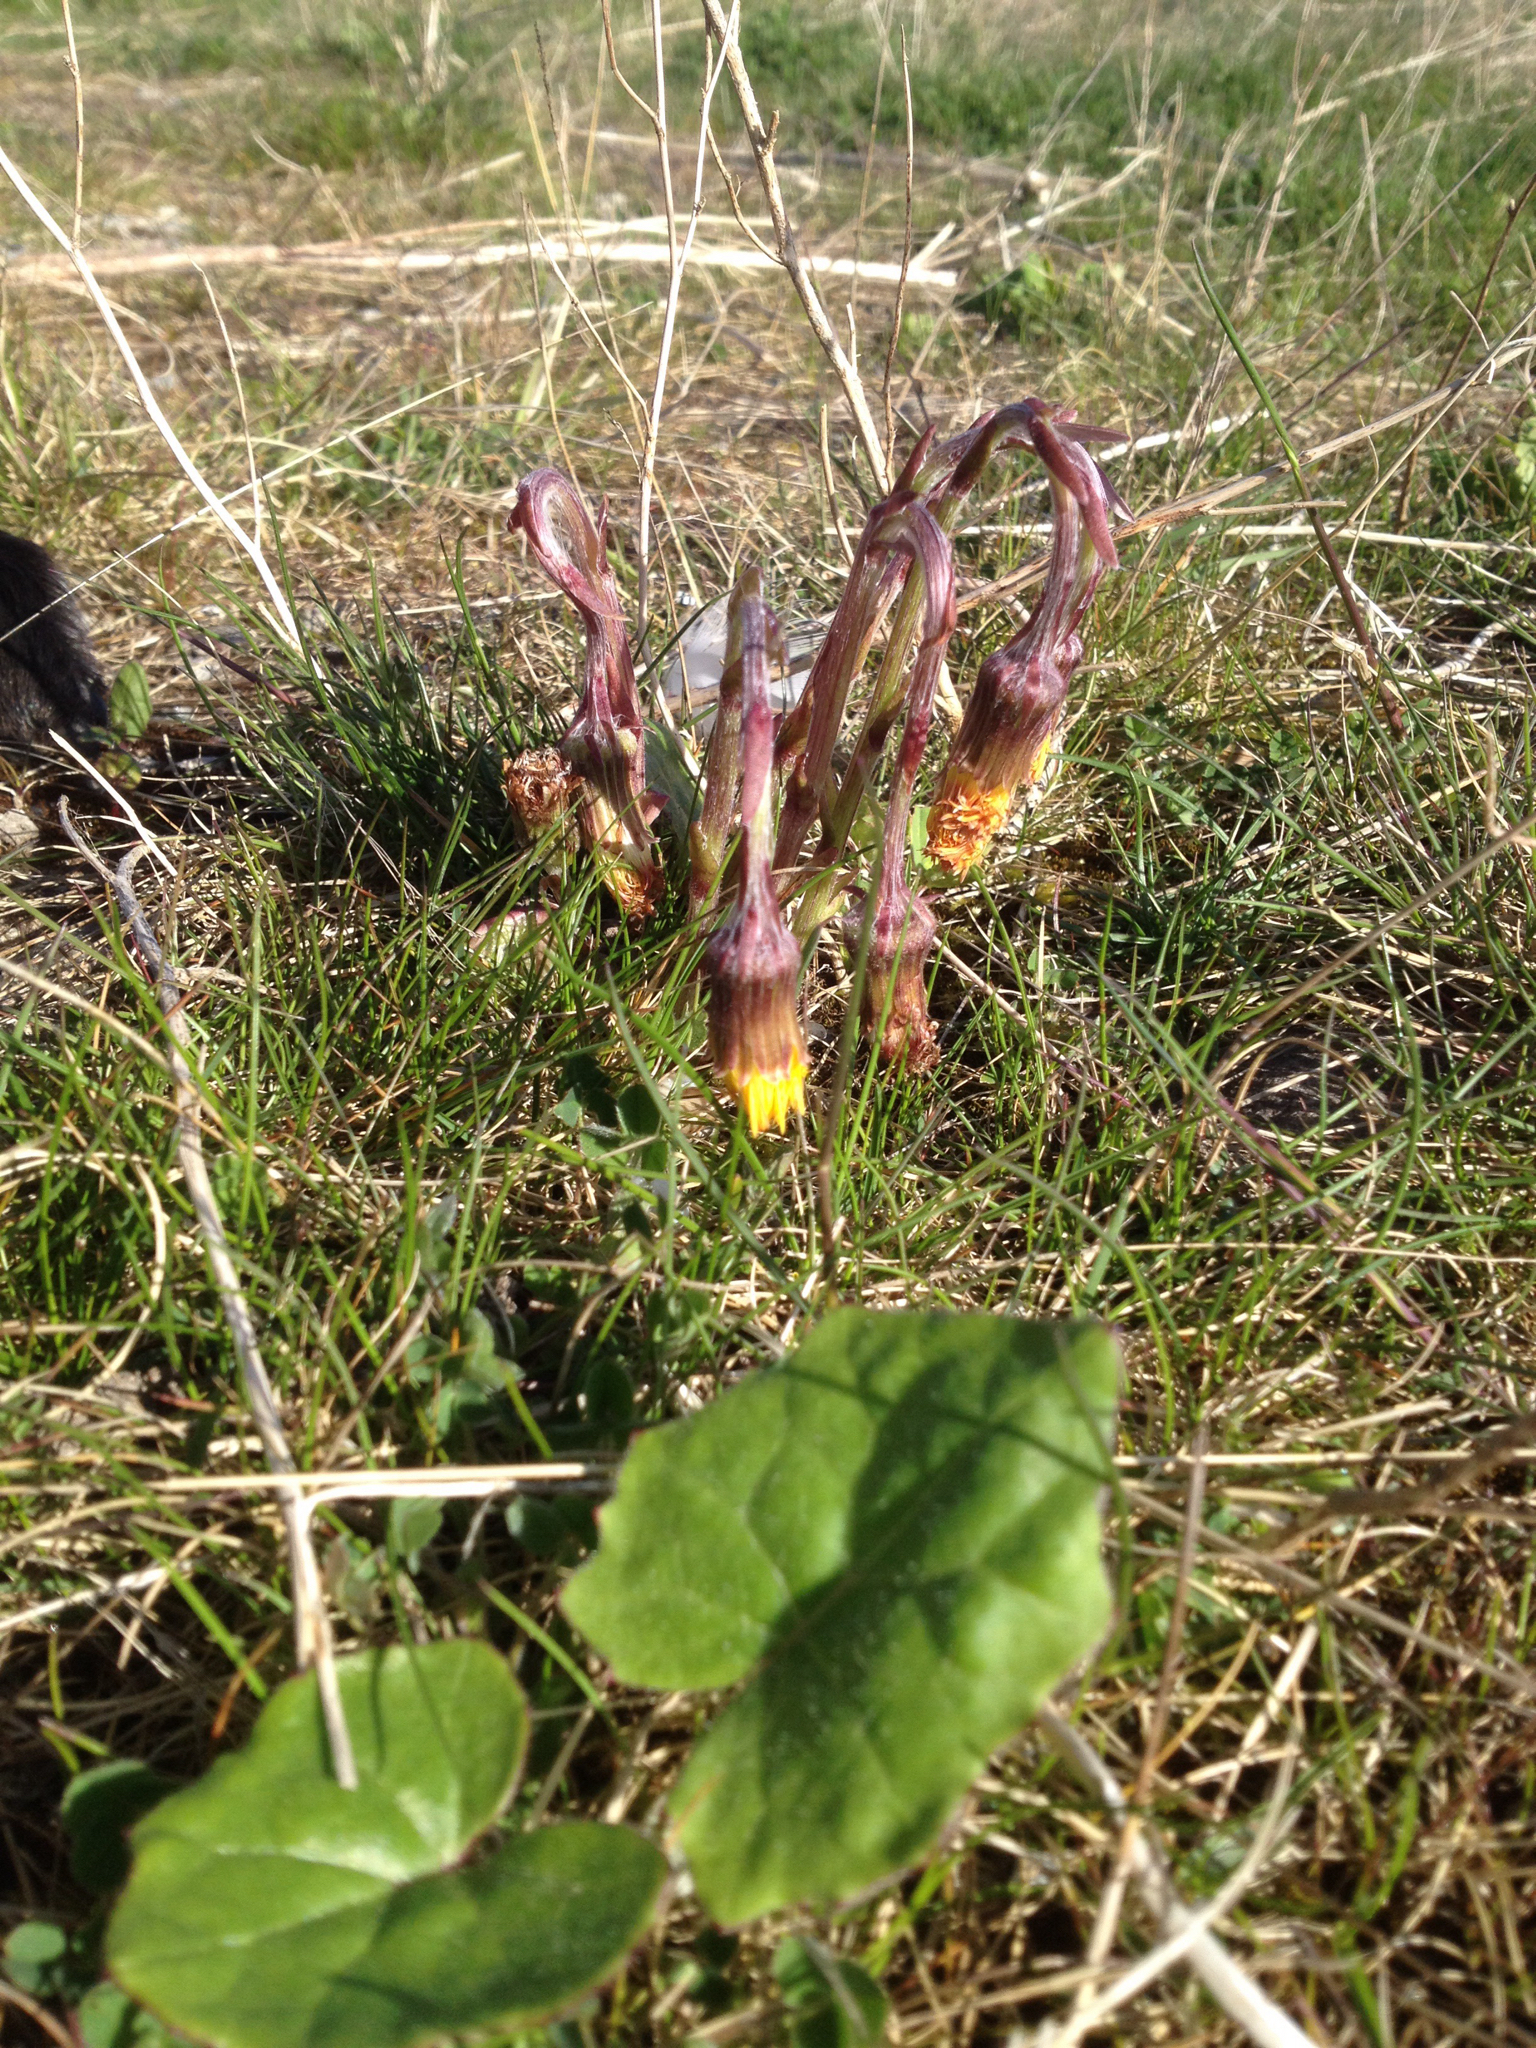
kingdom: Plantae
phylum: Tracheophyta
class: Magnoliopsida
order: Asterales
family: Asteraceae
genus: Tussilago
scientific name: Tussilago farfara
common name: Coltsfoot
